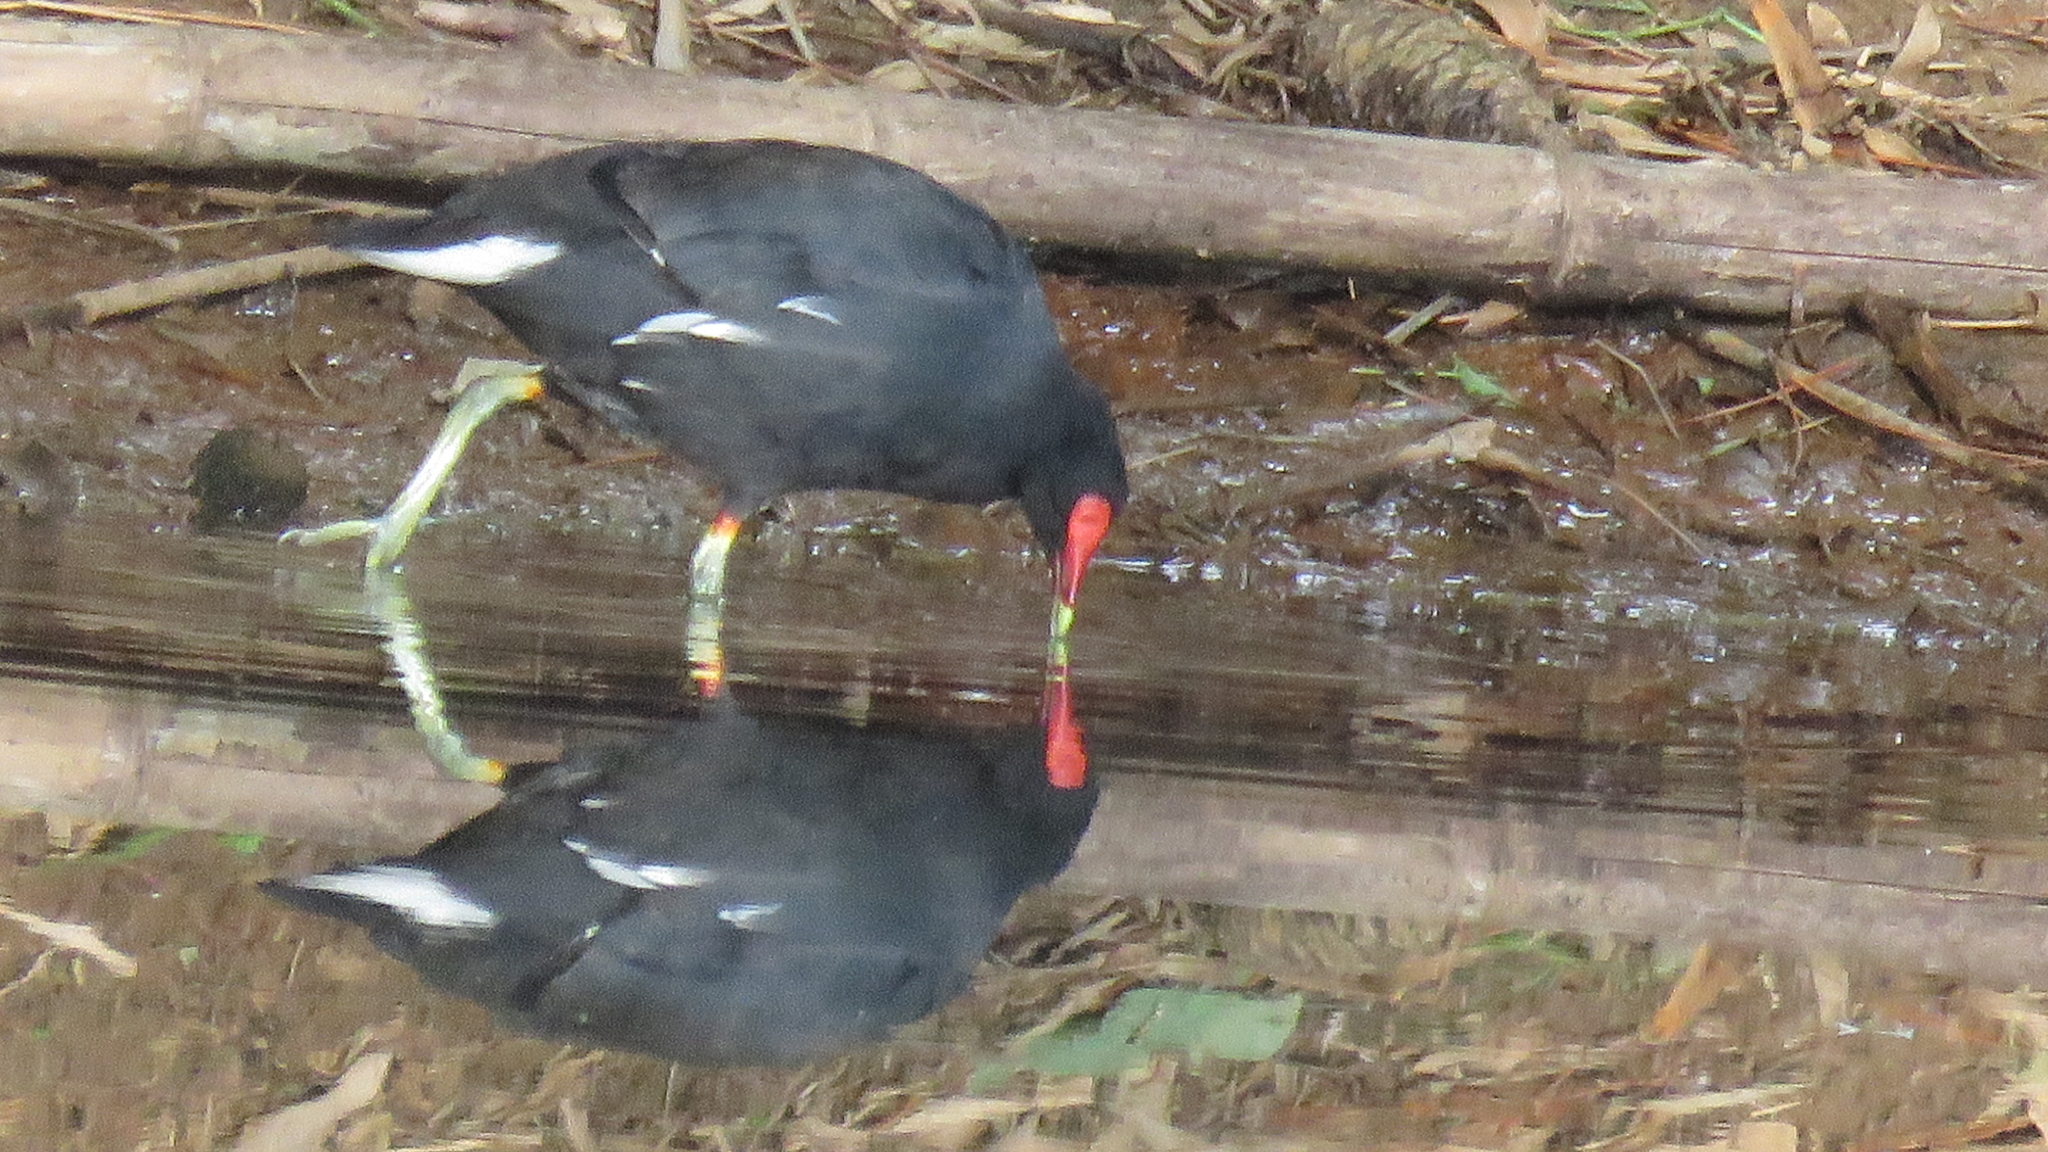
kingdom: Animalia
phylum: Chordata
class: Aves
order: Gruiformes
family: Rallidae
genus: Gallinula
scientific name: Gallinula chloropus
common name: Common moorhen
